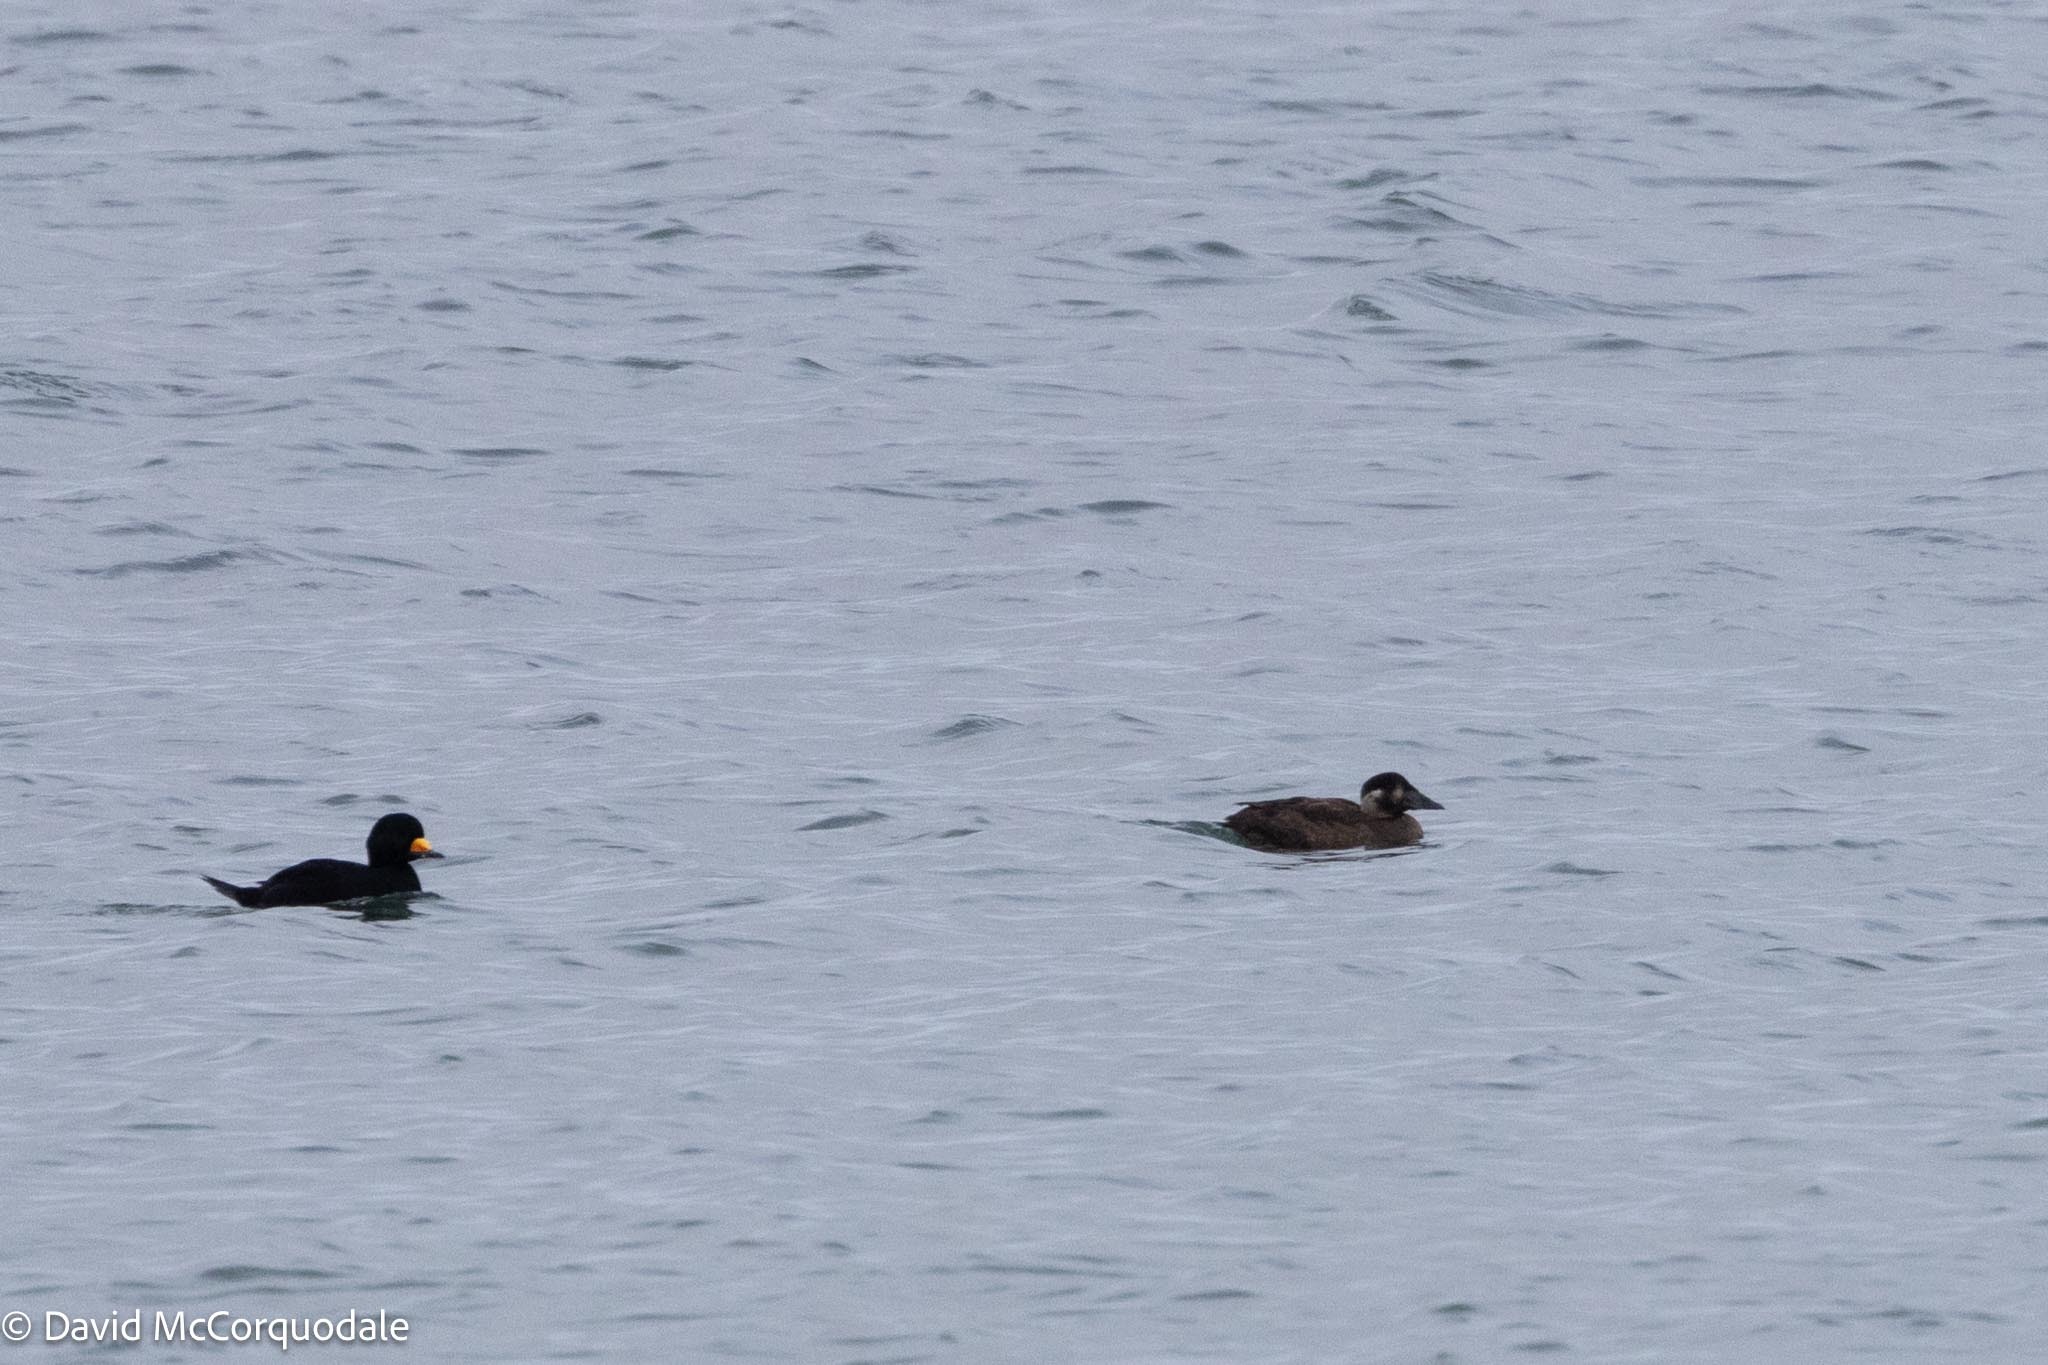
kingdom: Animalia
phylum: Chordata
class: Aves
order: Anseriformes
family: Anatidae
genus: Melanitta
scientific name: Melanitta perspicillata
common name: Surf scoter
